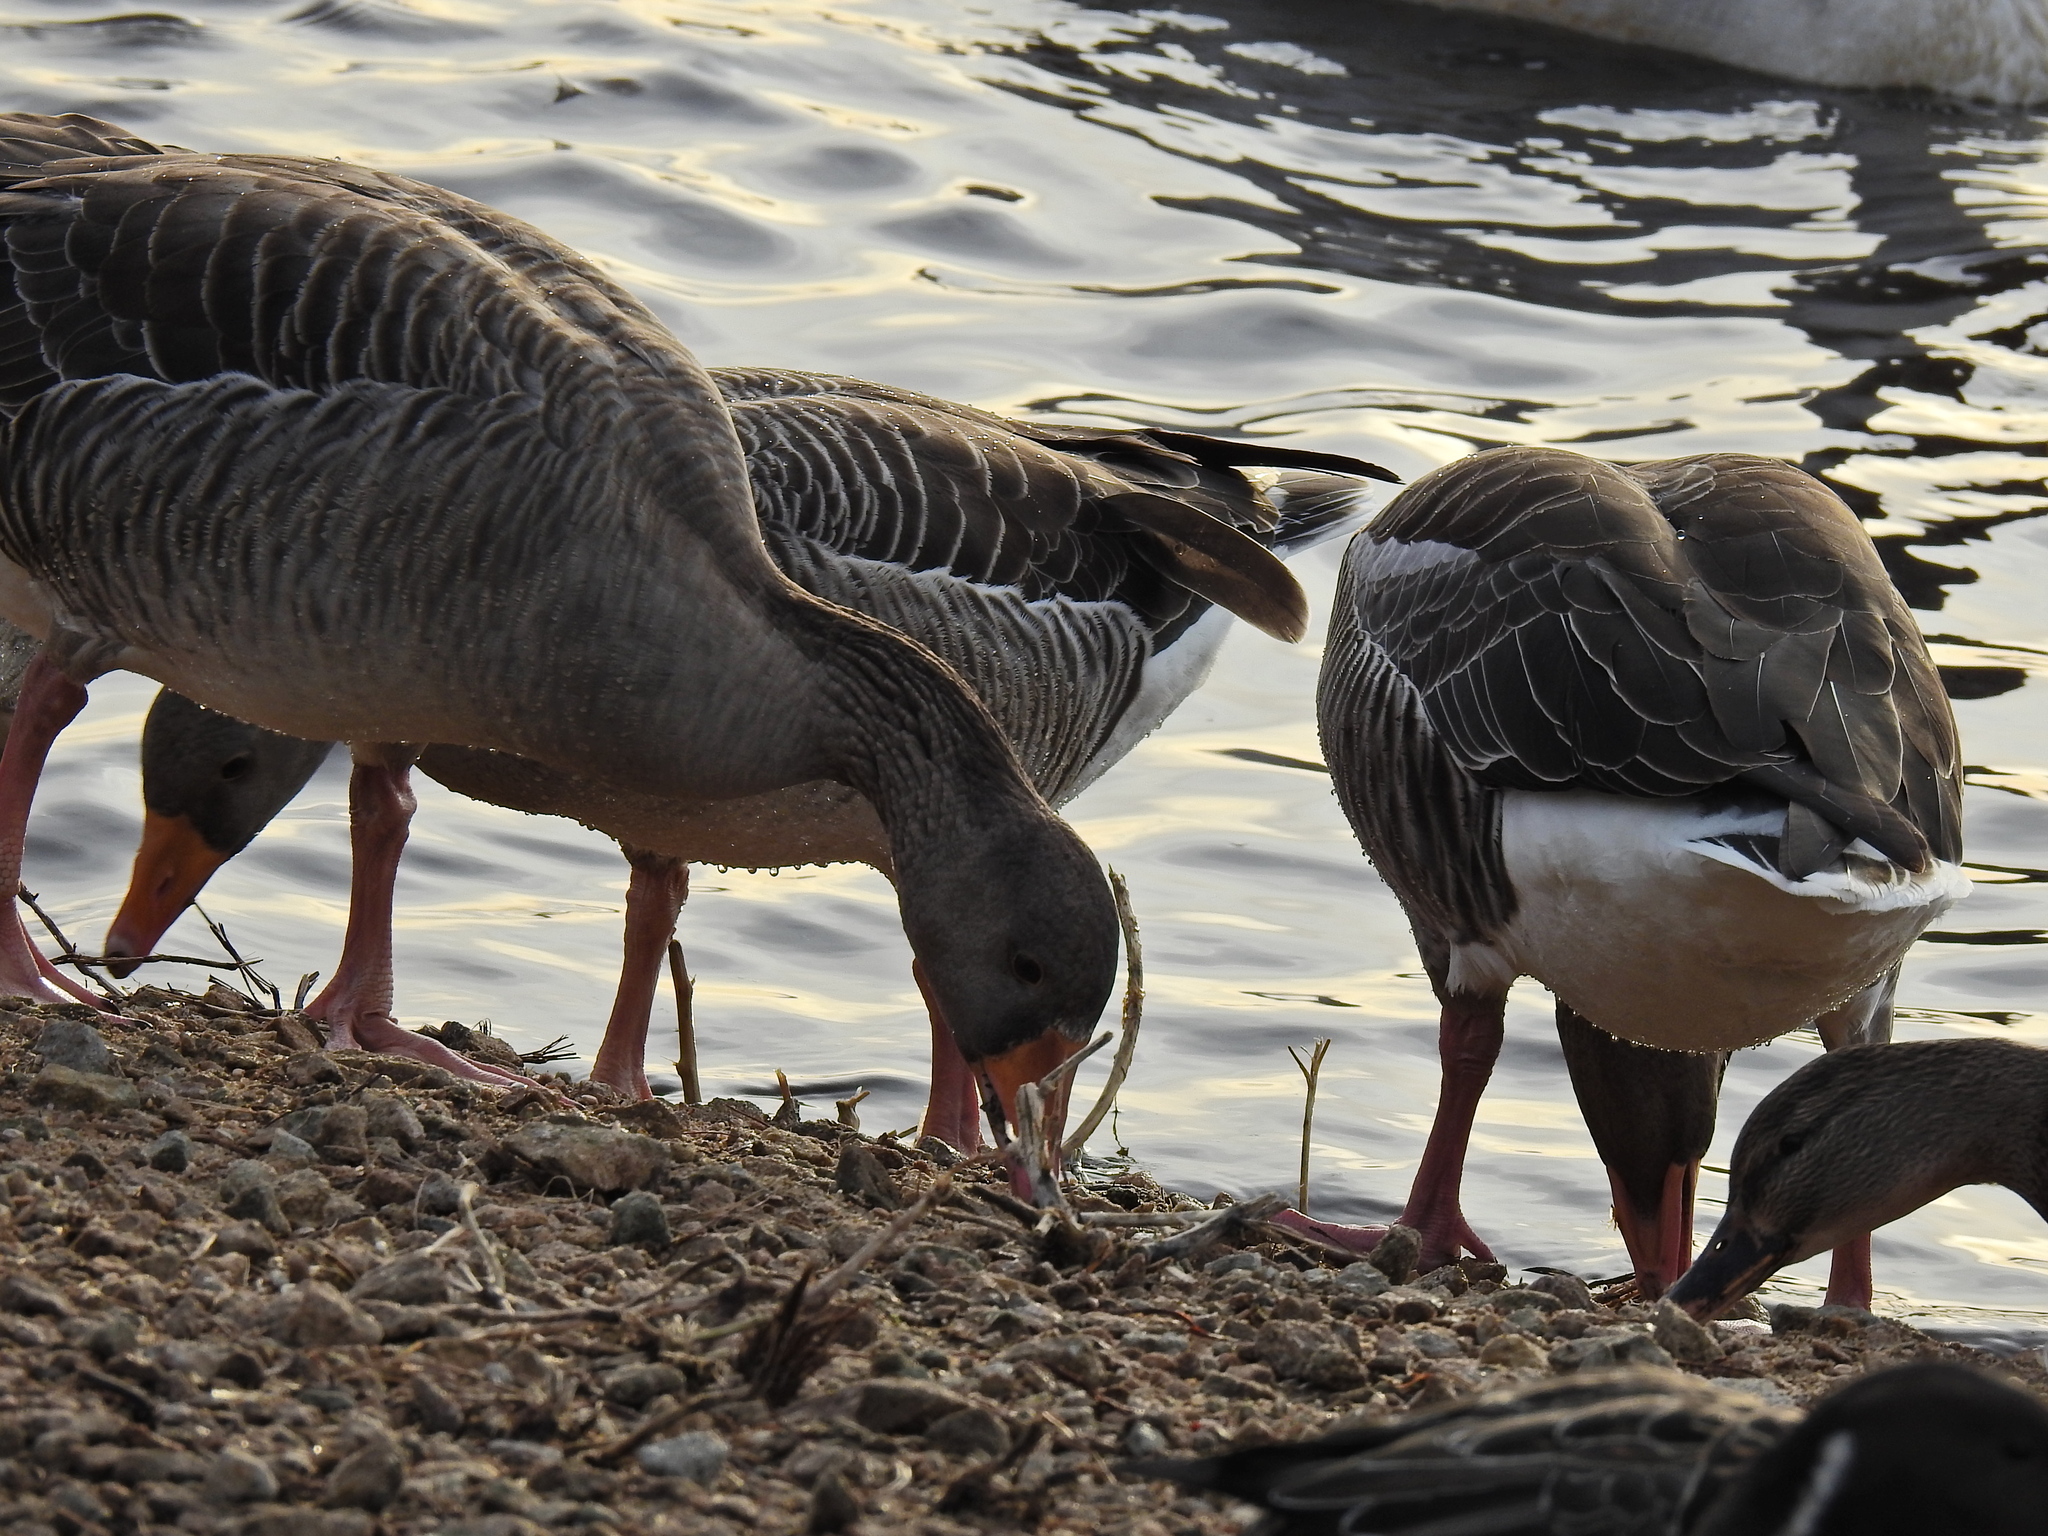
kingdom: Animalia
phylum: Chordata
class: Aves
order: Anseriformes
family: Anatidae
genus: Anser
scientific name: Anser anser
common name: Greylag goose
